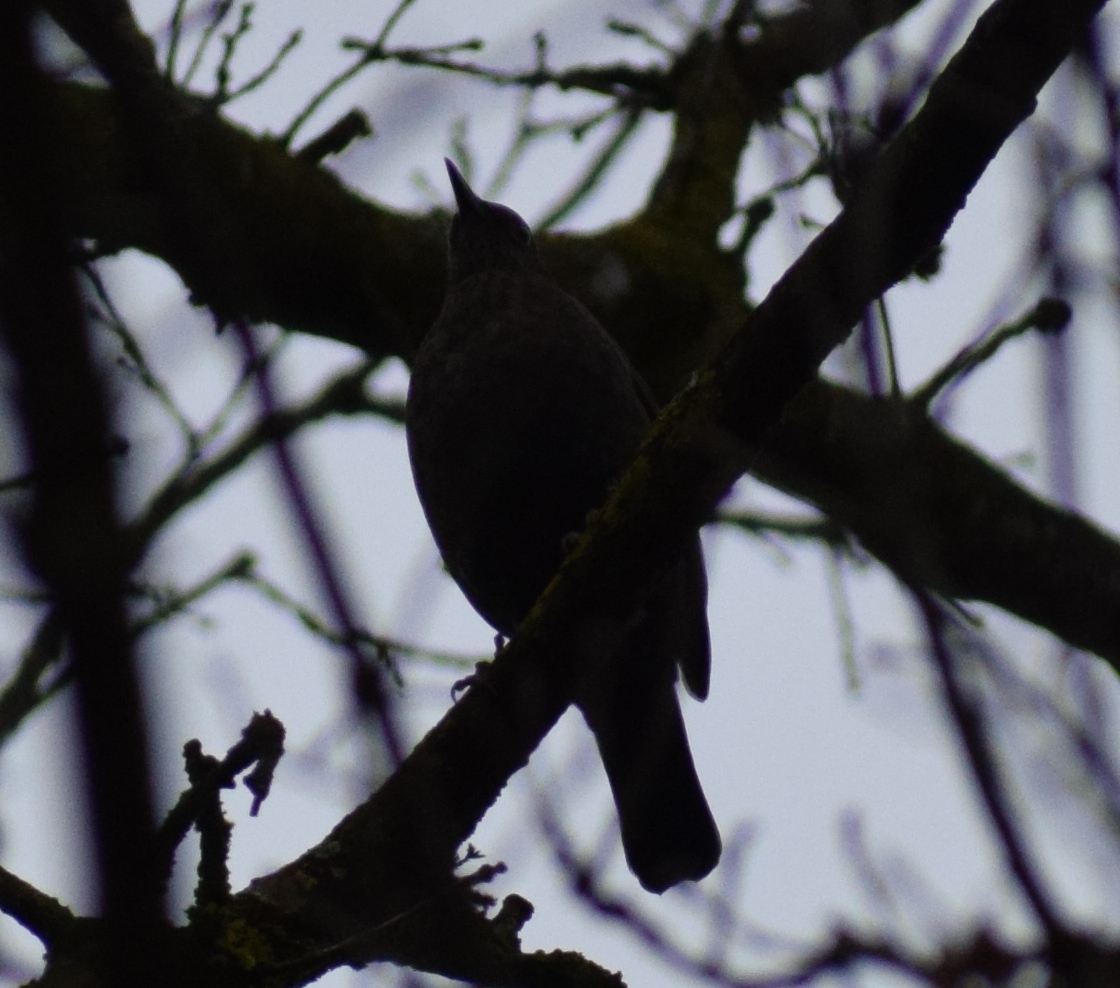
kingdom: Animalia
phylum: Chordata
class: Aves
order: Passeriformes
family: Turdidae
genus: Turdus
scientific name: Turdus merula
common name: Common blackbird
